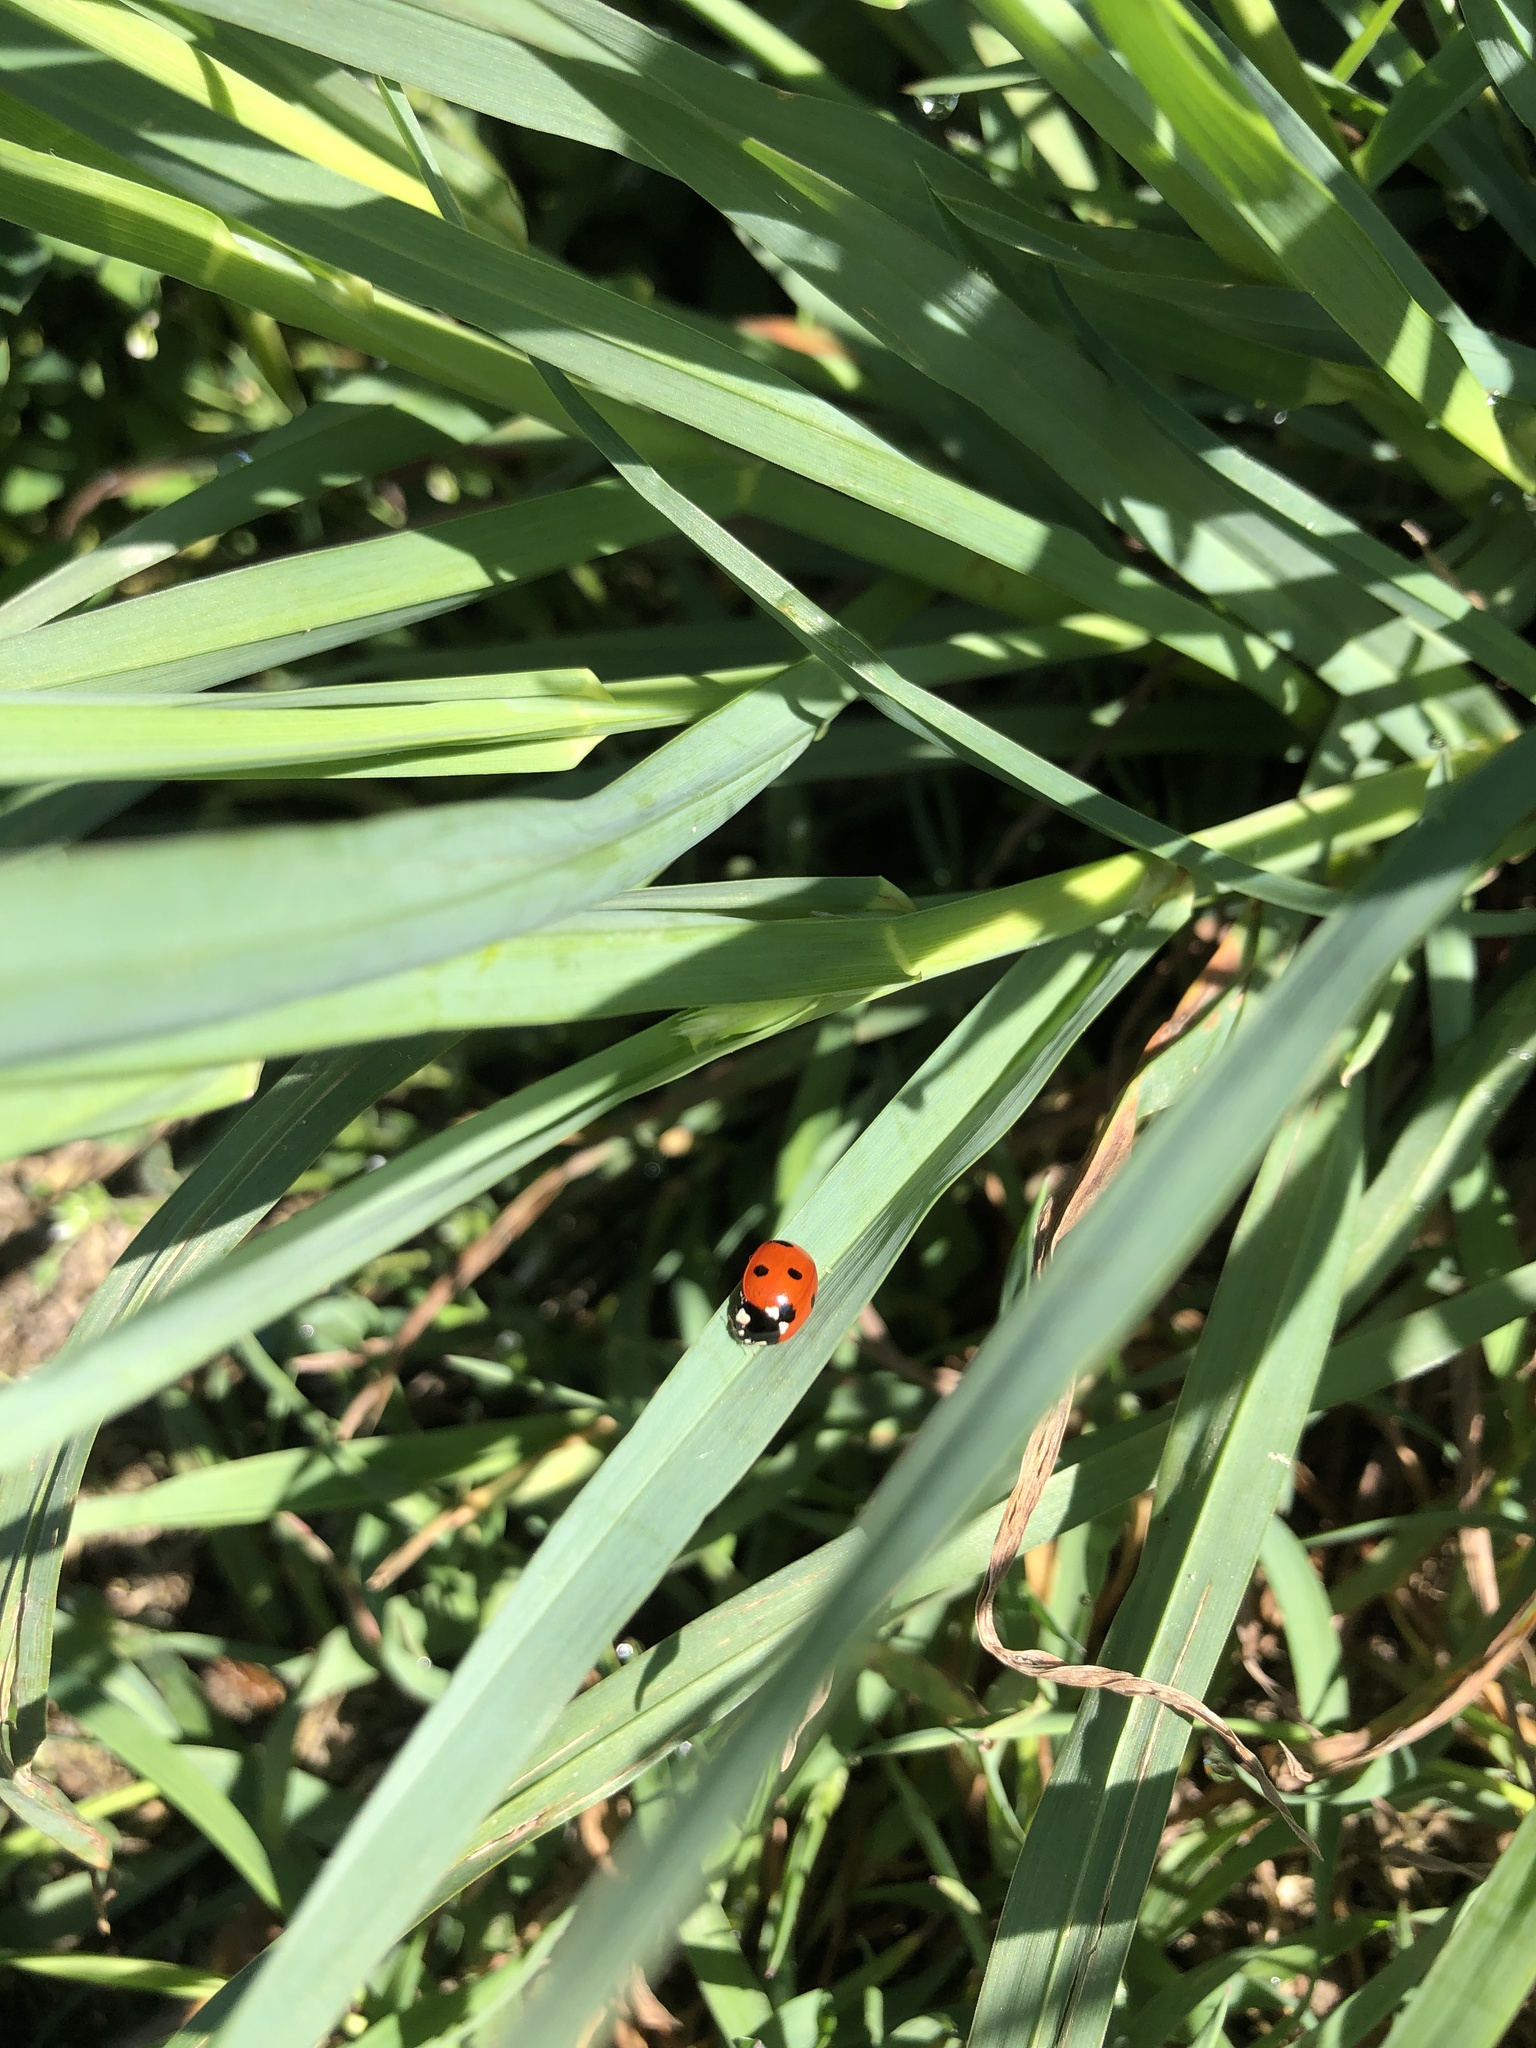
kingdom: Animalia
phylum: Arthropoda
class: Insecta
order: Coleoptera
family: Coccinellidae
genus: Coccinella
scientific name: Coccinella septempunctata
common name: Sevenspotted lady beetle
